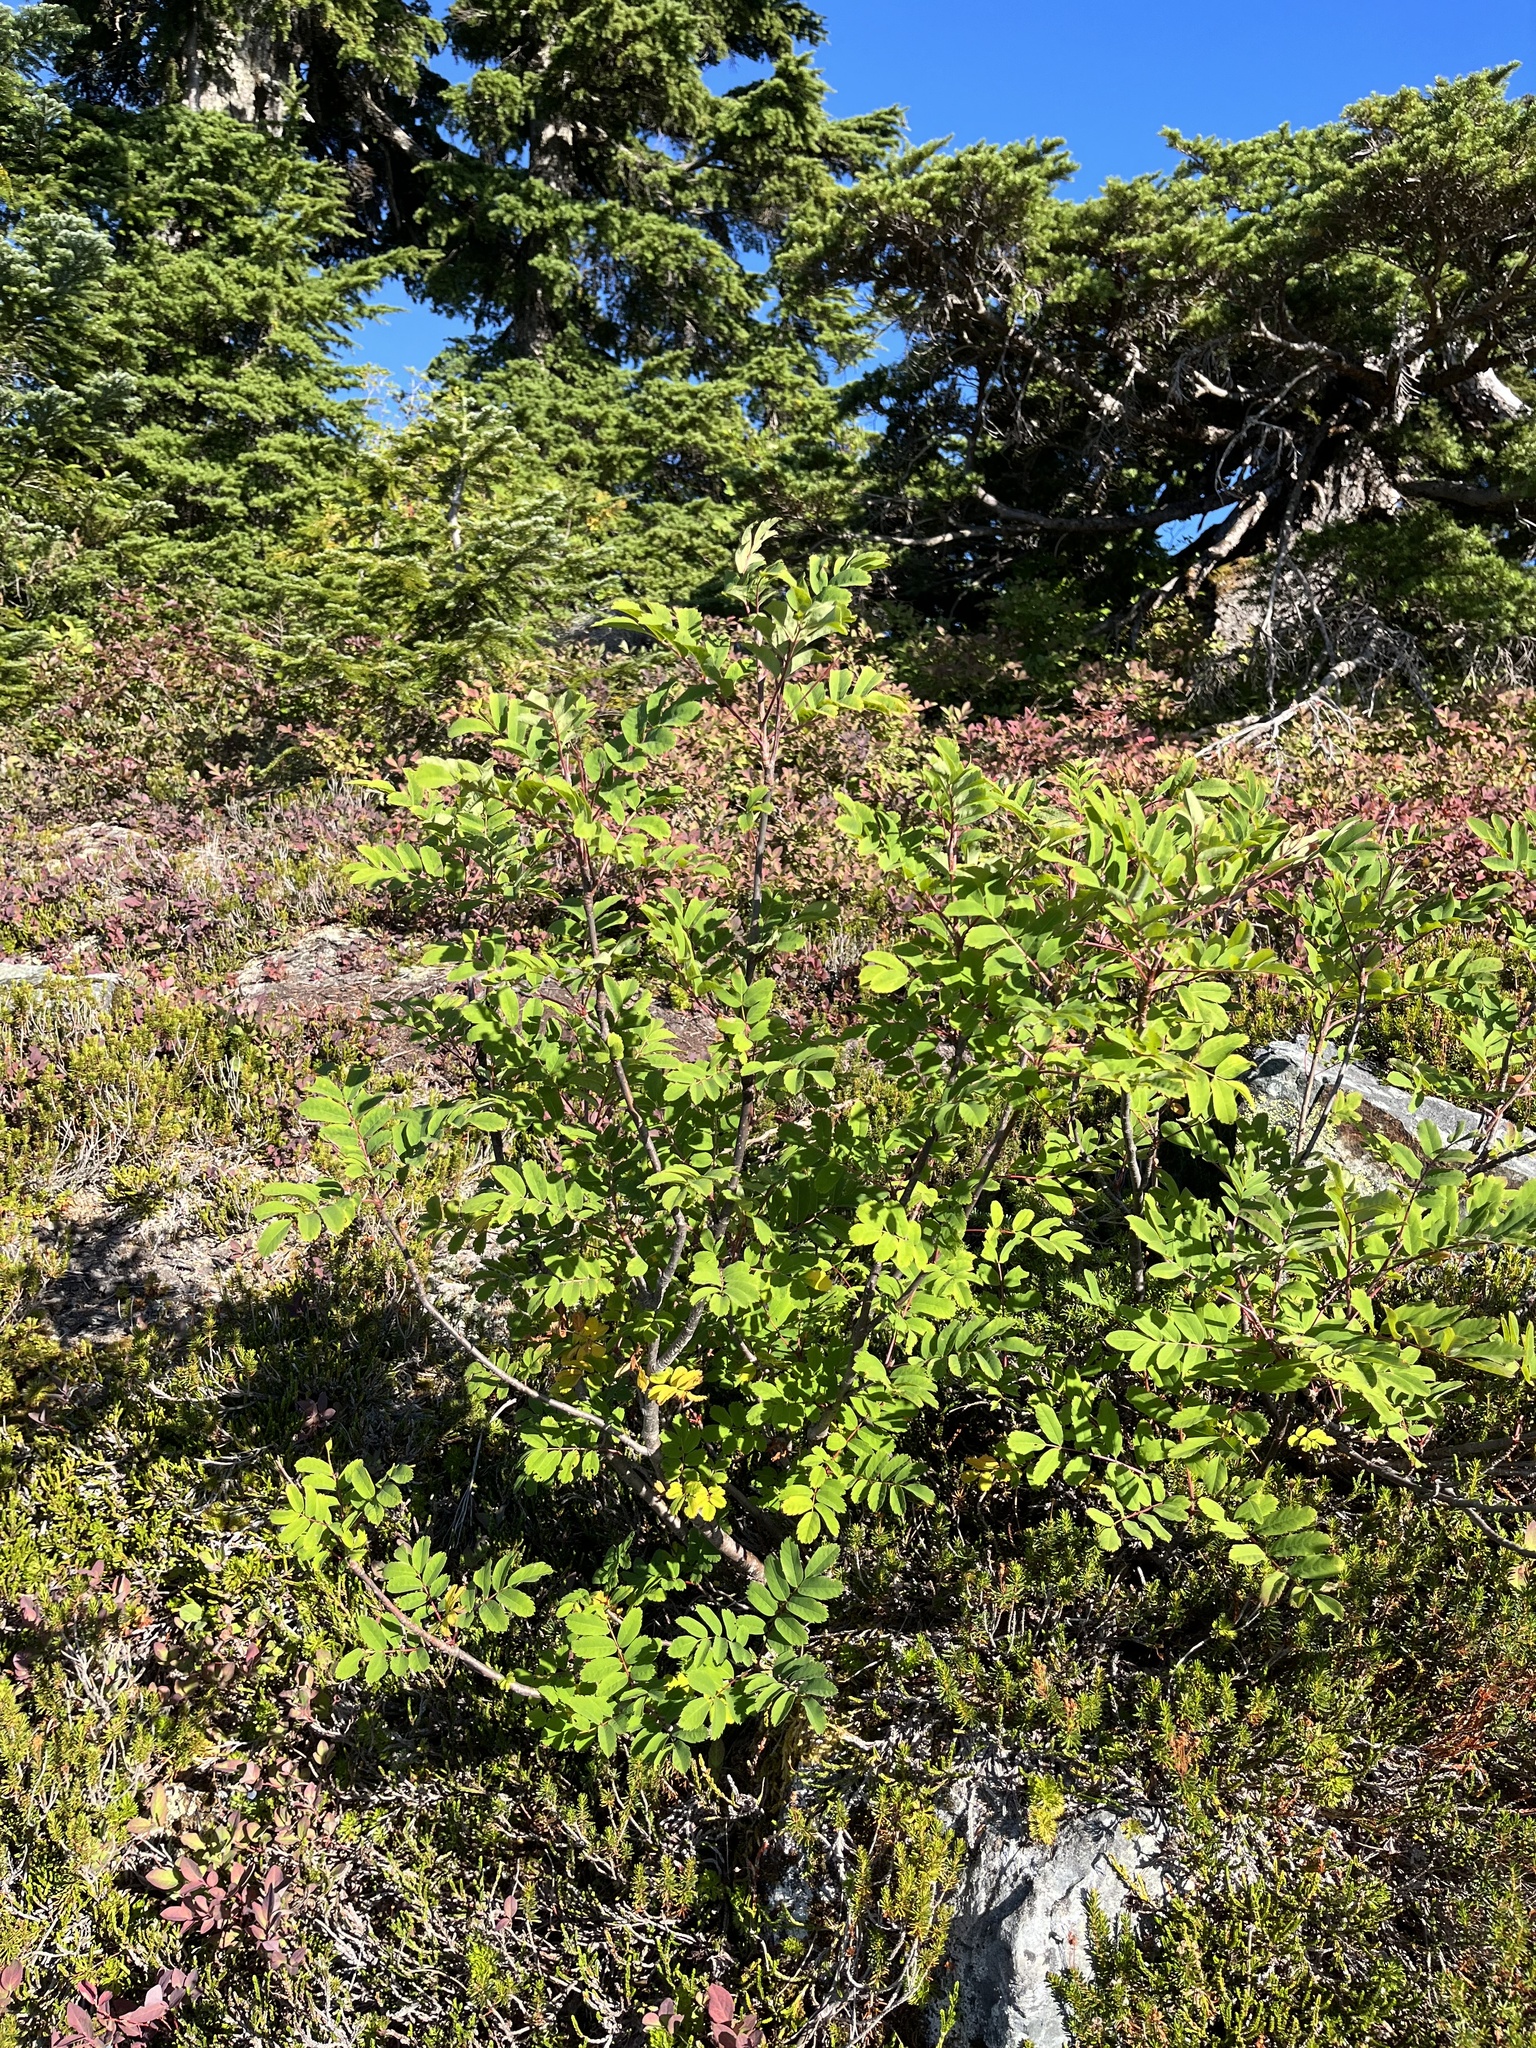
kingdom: Plantae
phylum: Tracheophyta
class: Magnoliopsida
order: Rosales
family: Rosaceae
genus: Sorbus
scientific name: Sorbus sitchensis
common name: Sitka mountain-ash
